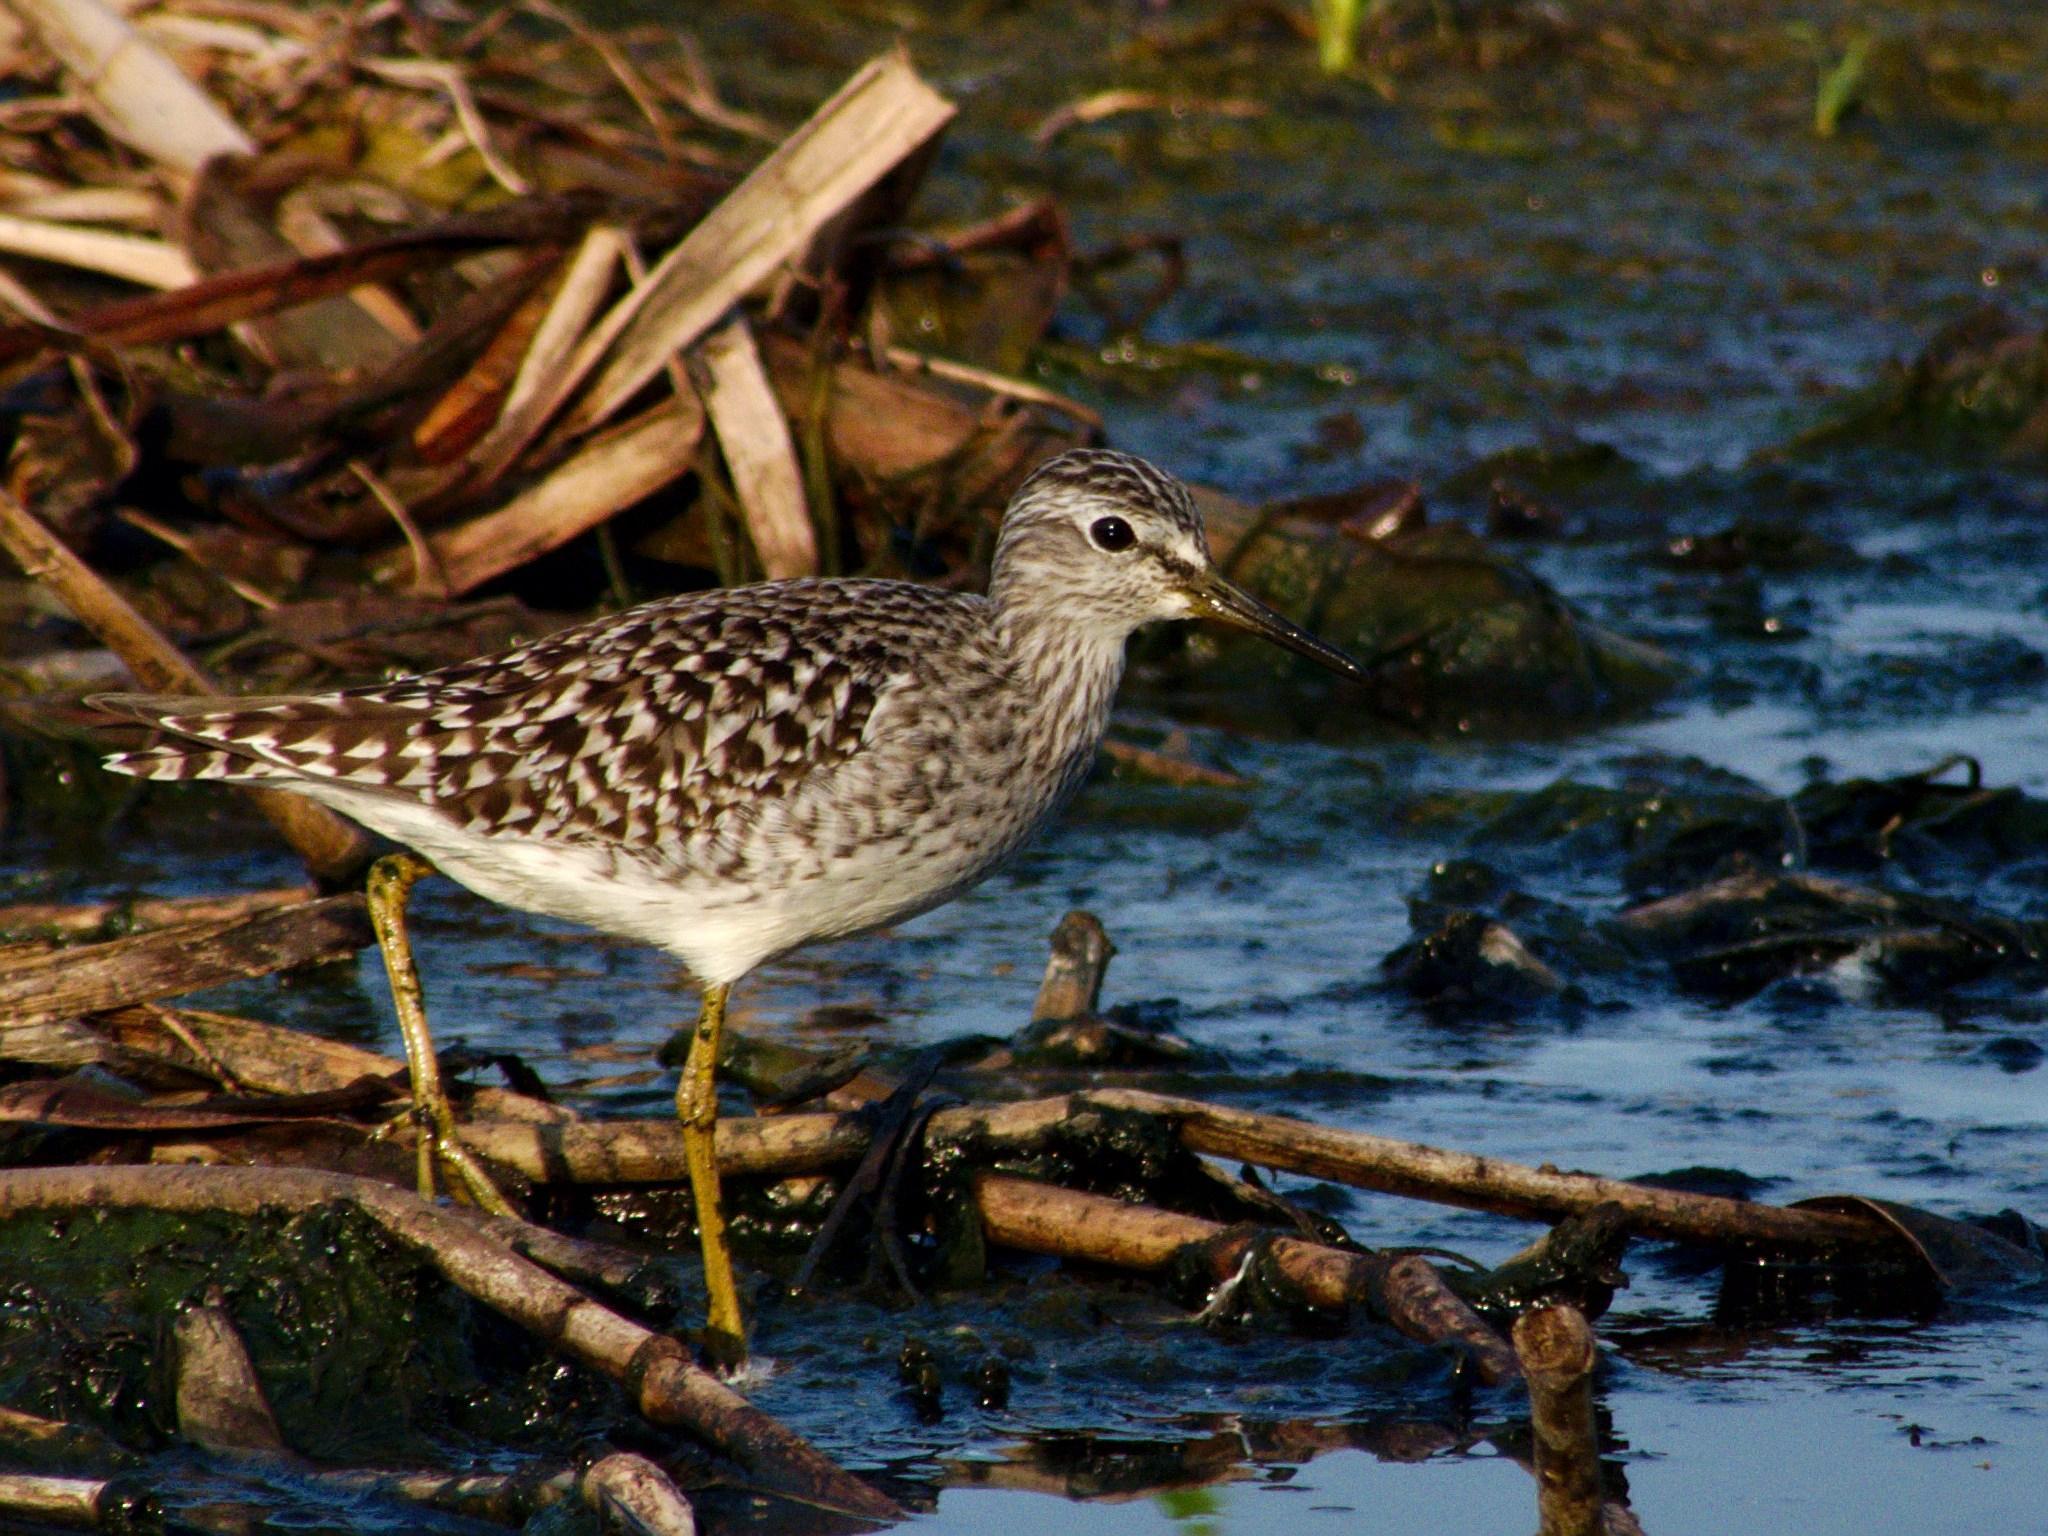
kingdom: Animalia
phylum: Chordata
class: Aves
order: Charadriiformes
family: Scolopacidae
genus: Tringa
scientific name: Tringa glareola
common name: Wood sandpiper
